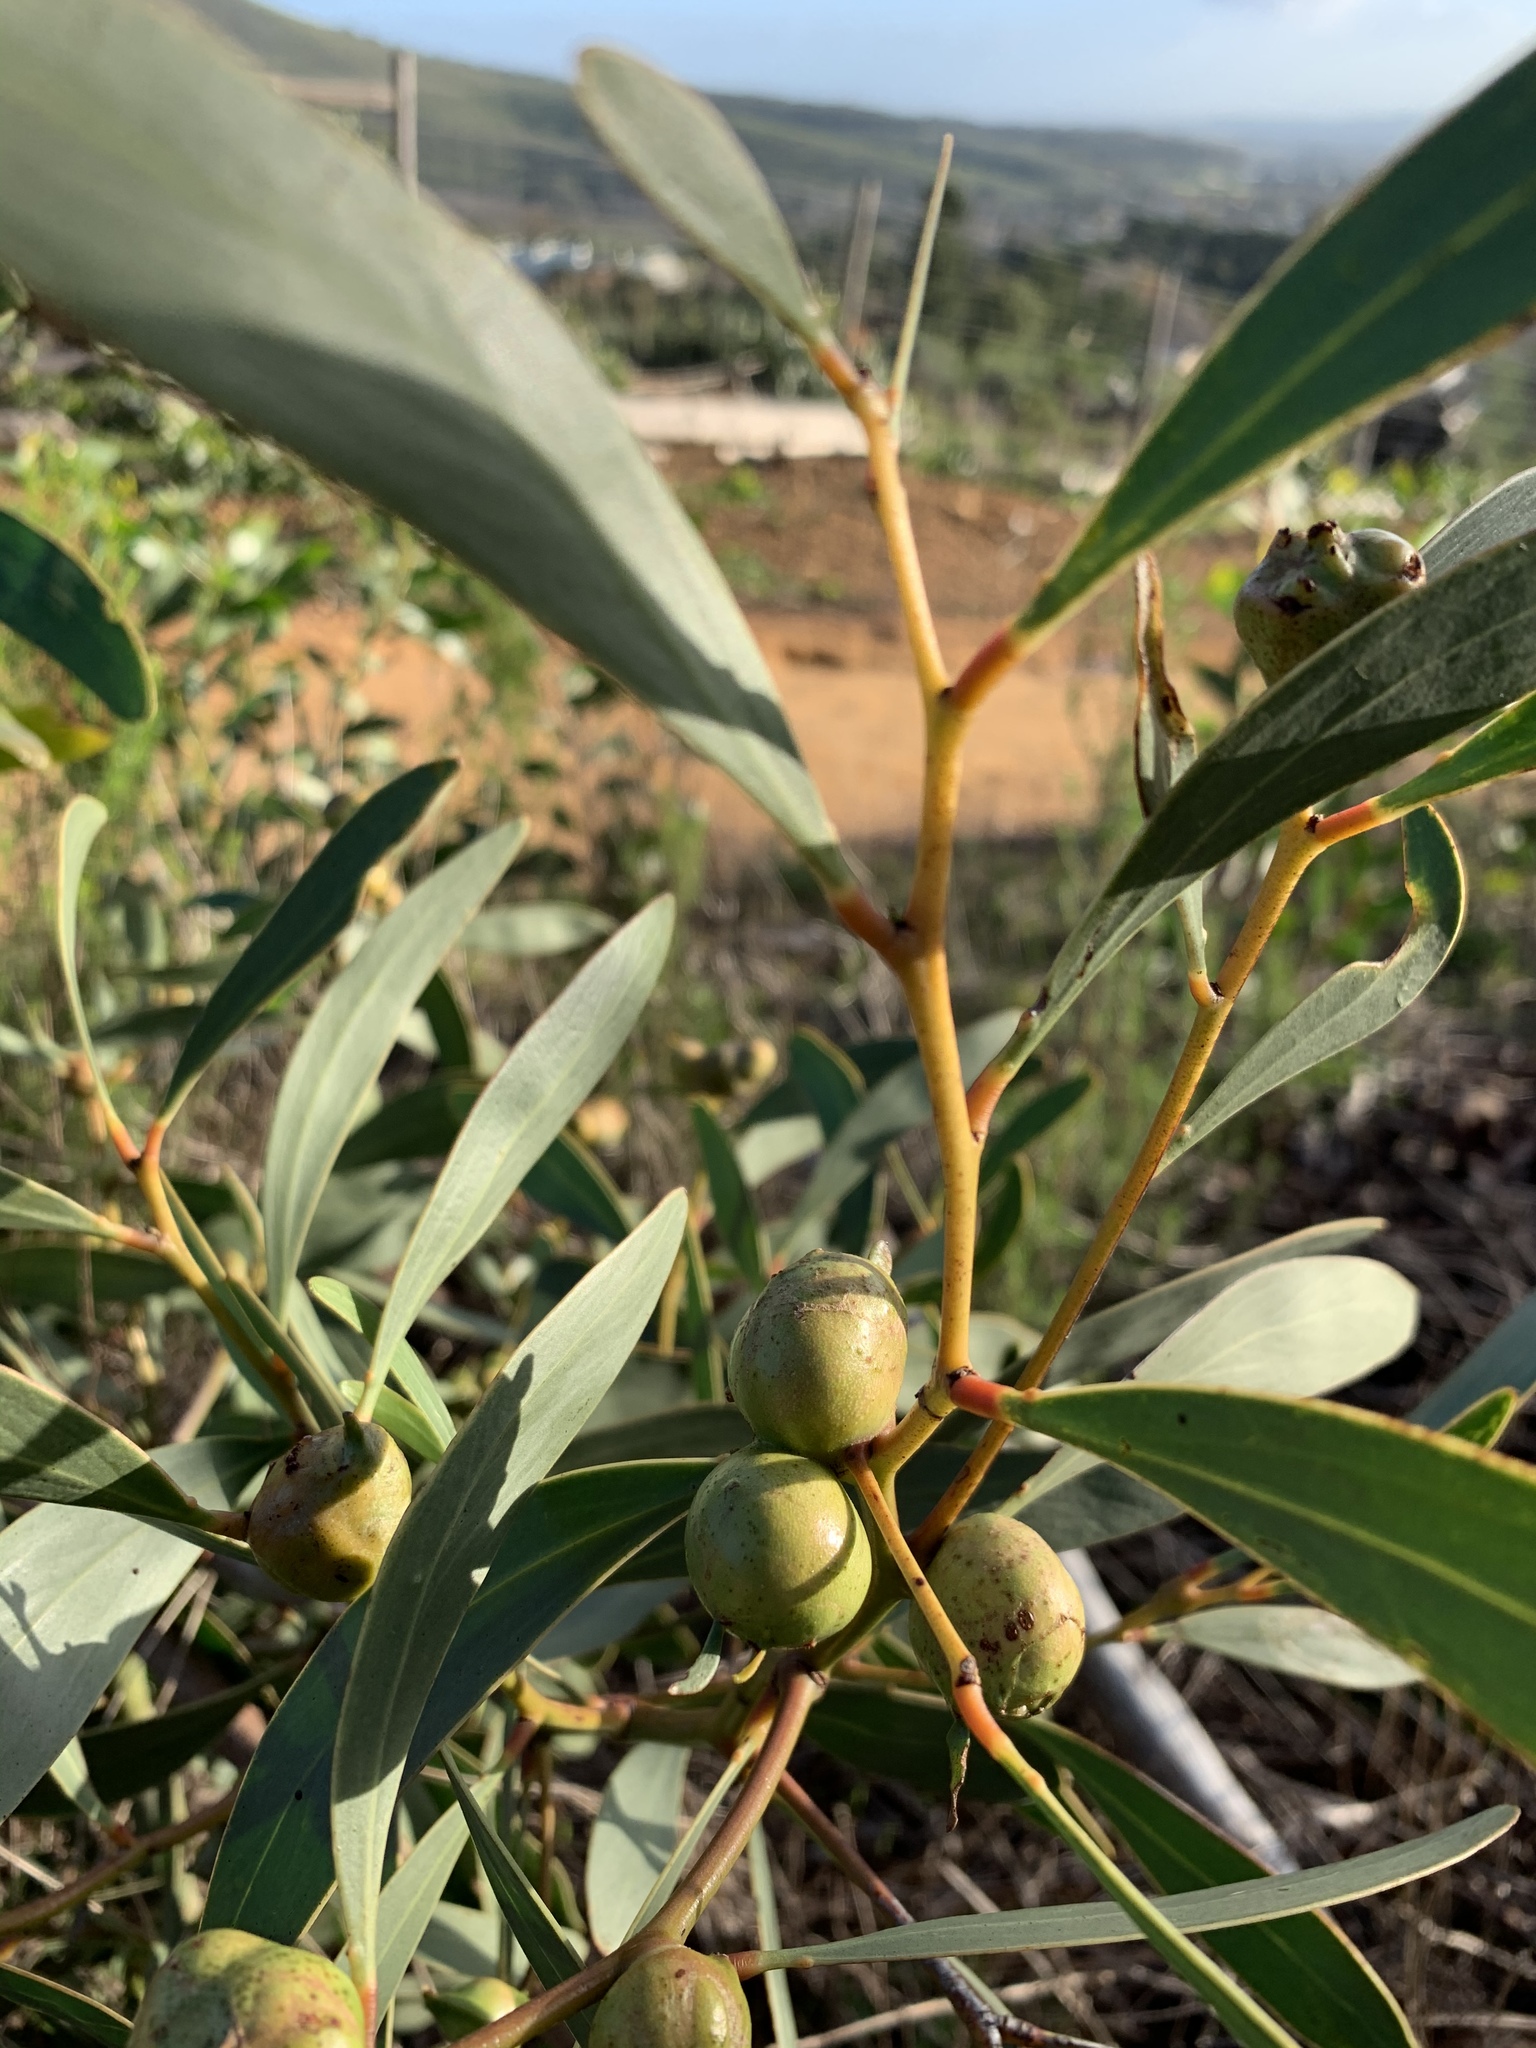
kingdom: Plantae
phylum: Tracheophyta
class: Magnoliopsida
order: Fabales
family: Fabaceae
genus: Acacia
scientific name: Acacia pycnantha
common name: Golden wattle
